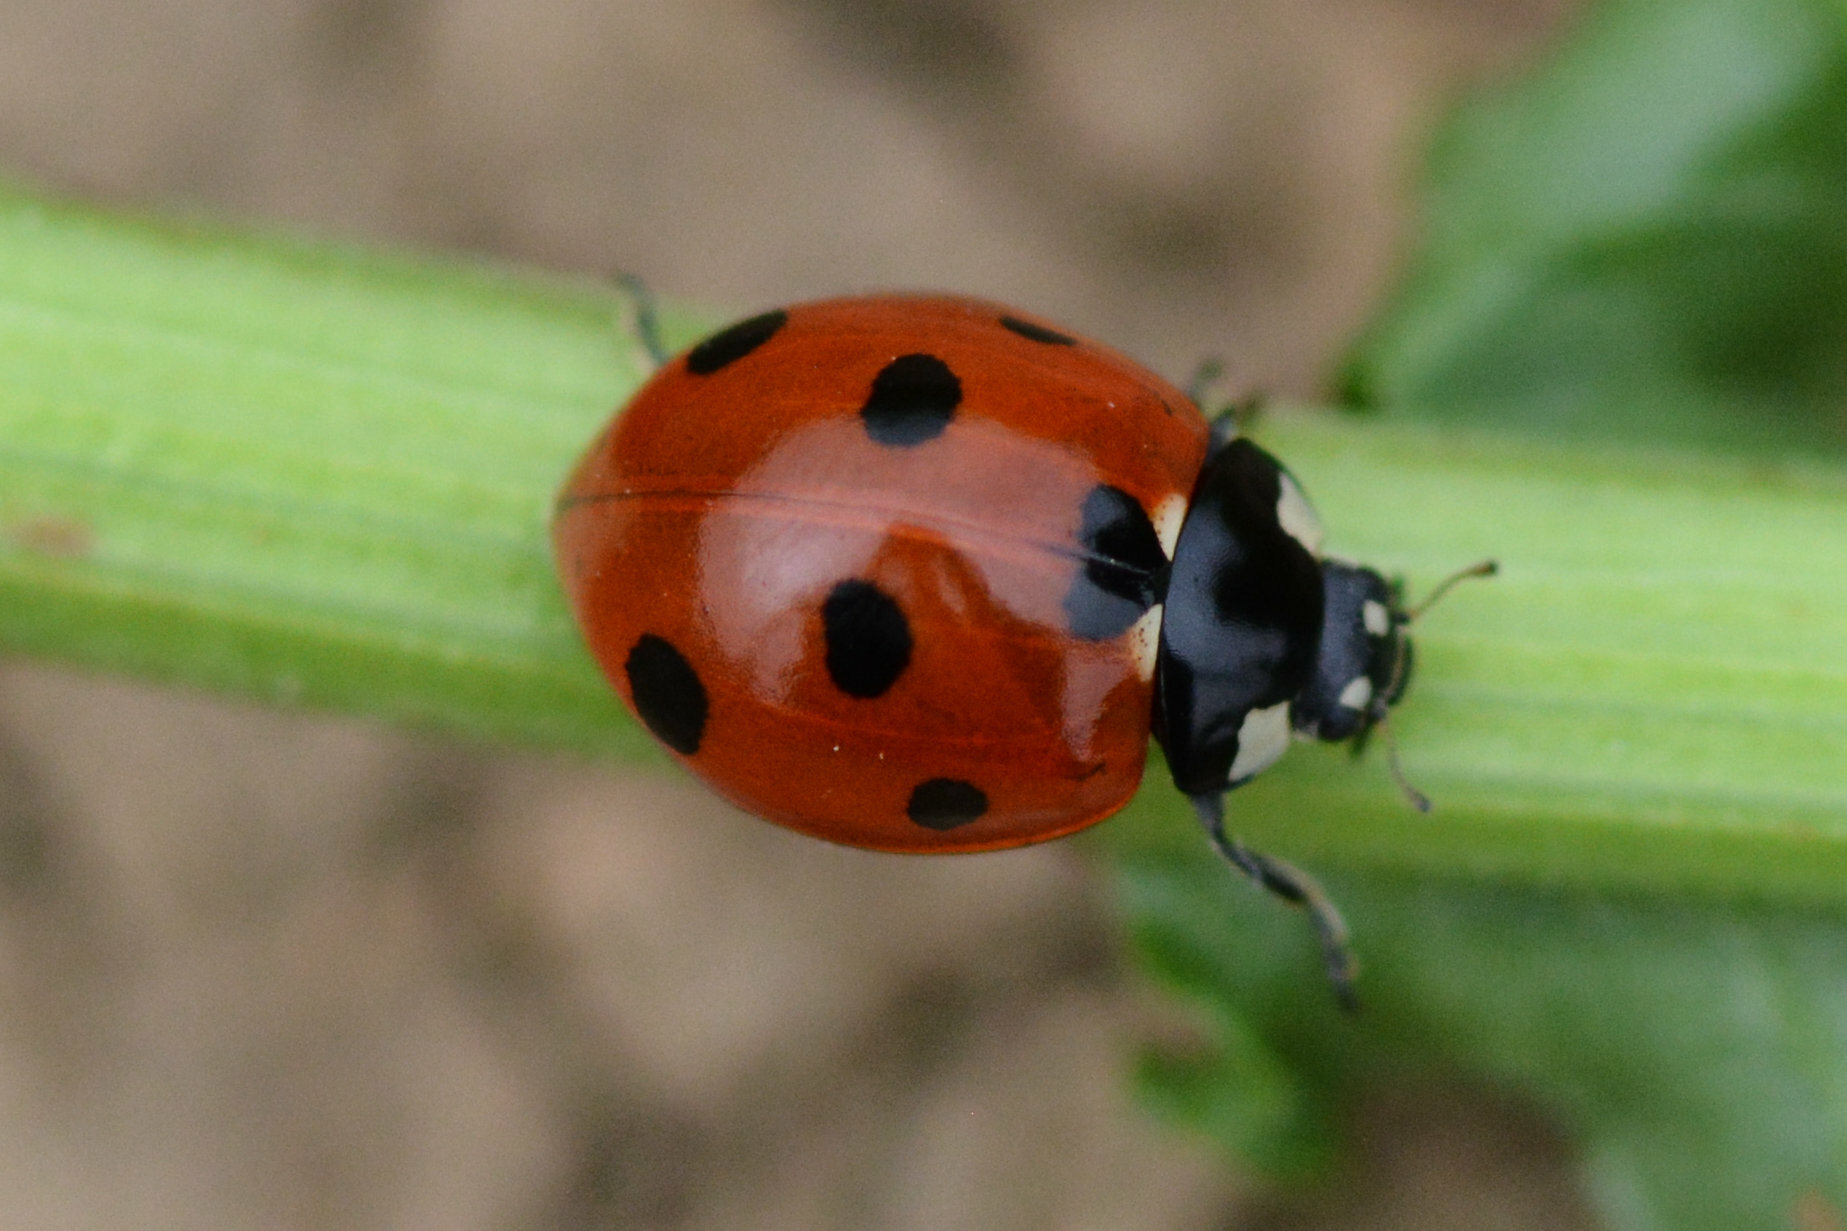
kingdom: Animalia
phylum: Arthropoda
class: Insecta
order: Coleoptera
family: Coccinellidae
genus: Coccinella
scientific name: Coccinella septempunctata
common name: Sevenspotted lady beetle
